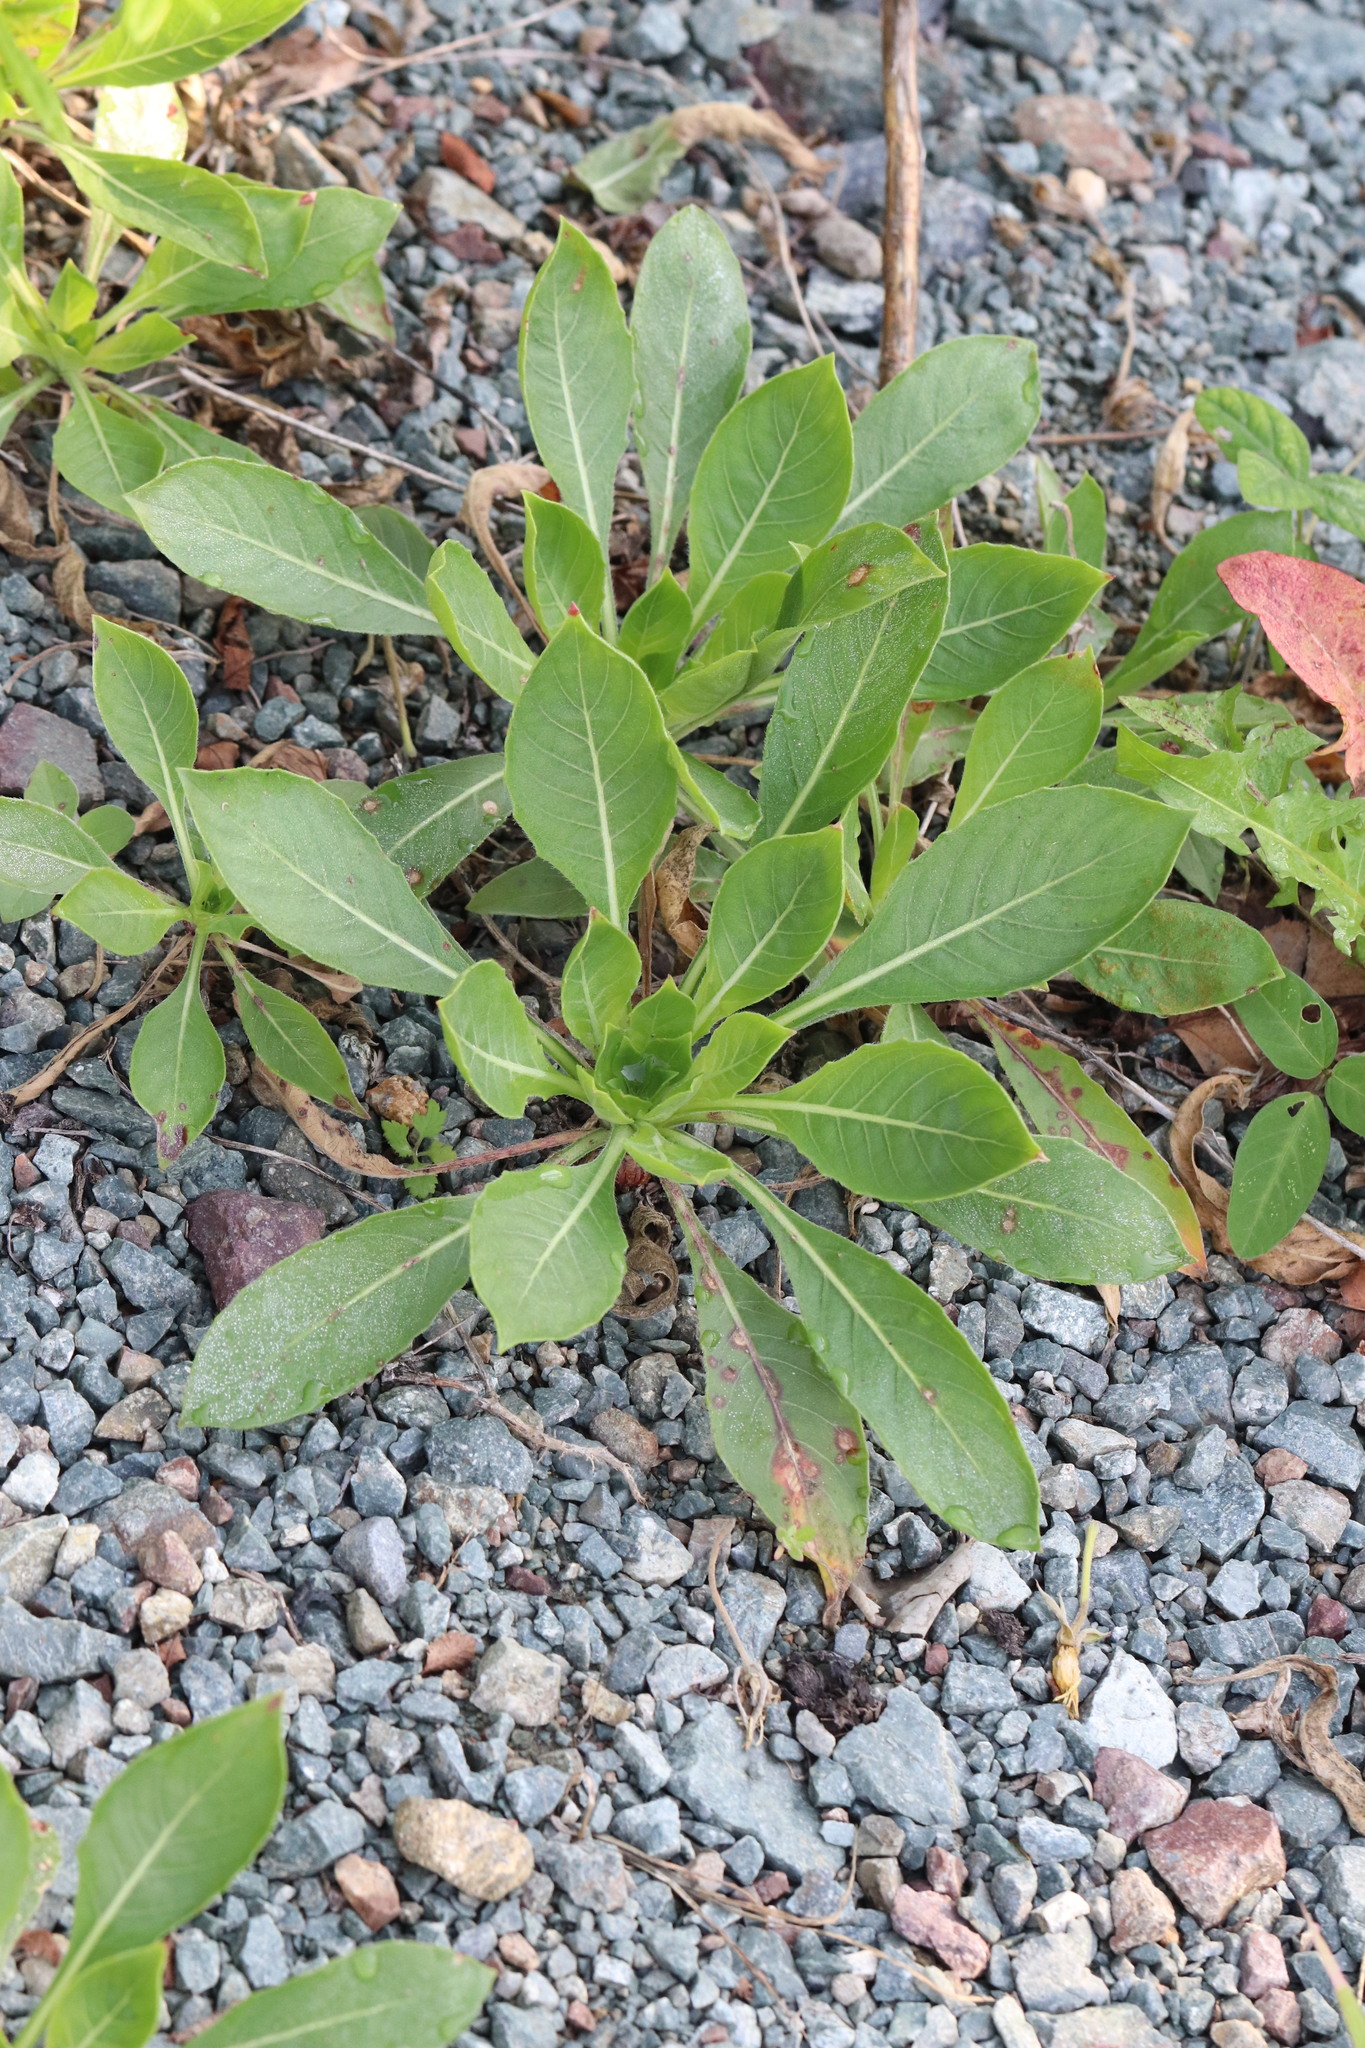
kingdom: Plantae
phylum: Tracheophyta
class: Magnoliopsida
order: Myrtales
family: Onagraceae
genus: Oenothera
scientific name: Oenothera
